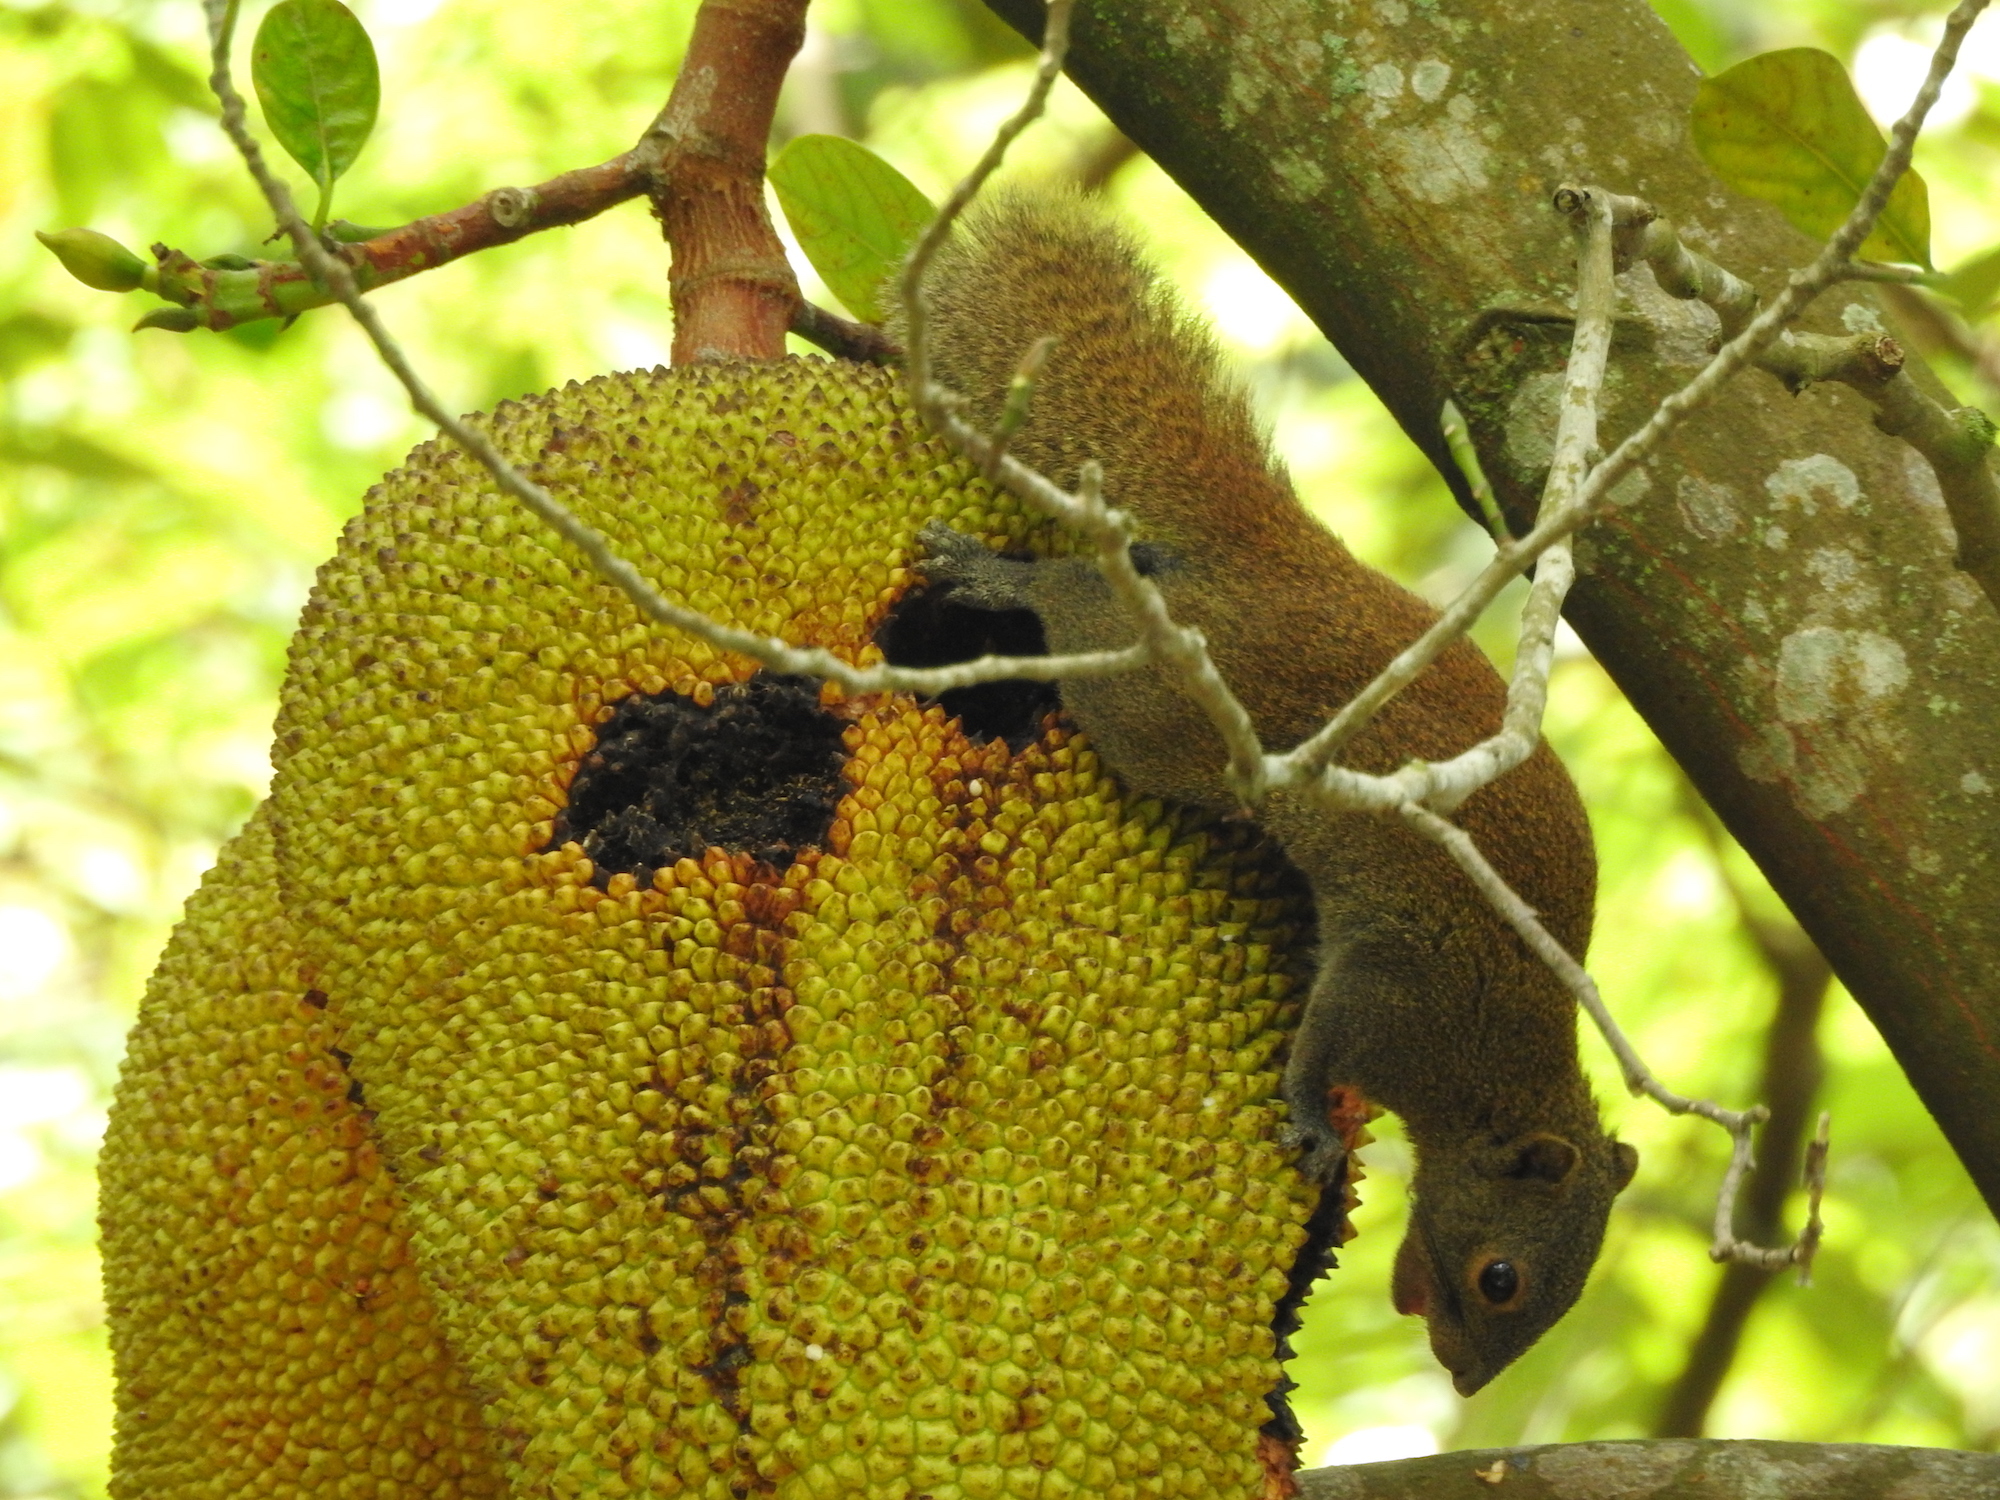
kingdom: Animalia
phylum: Chordata
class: Mammalia
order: Rodentia
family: Sciuridae
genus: Callosciurus
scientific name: Callosciurus caniceps
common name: Gray-bellied squirrel
